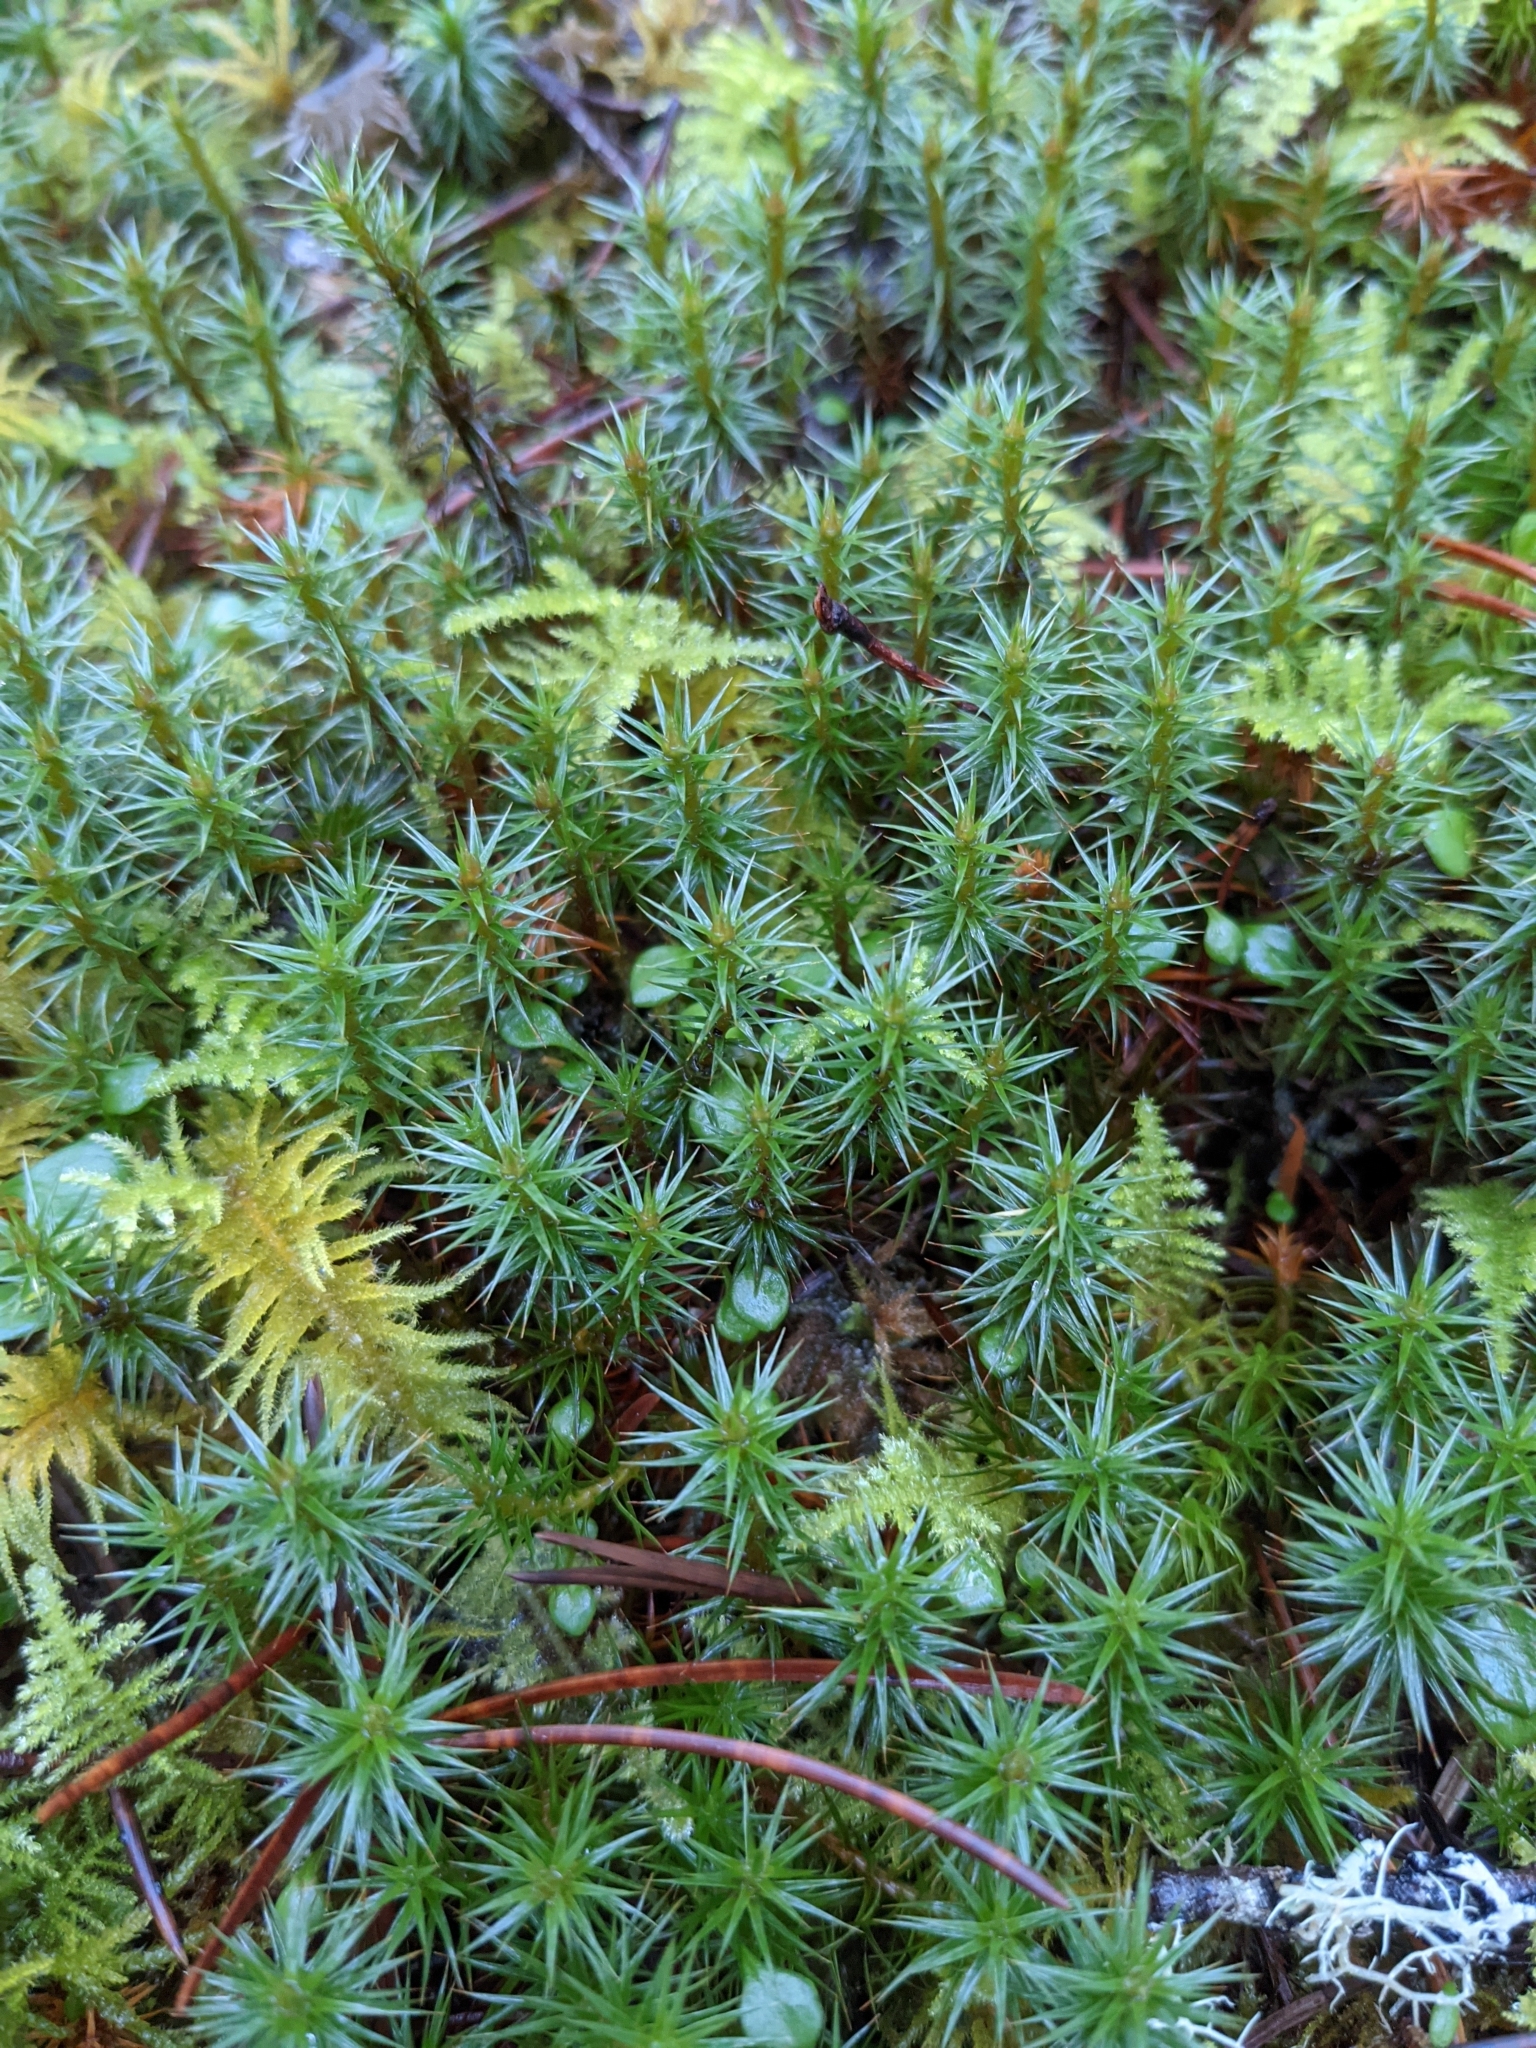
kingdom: Plantae
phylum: Bryophyta
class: Polytrichopsida
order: Polytrichales
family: Polytrichaceae
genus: Polytrichum
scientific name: Polytrichum juniperinum
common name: Juniper haircap moss
